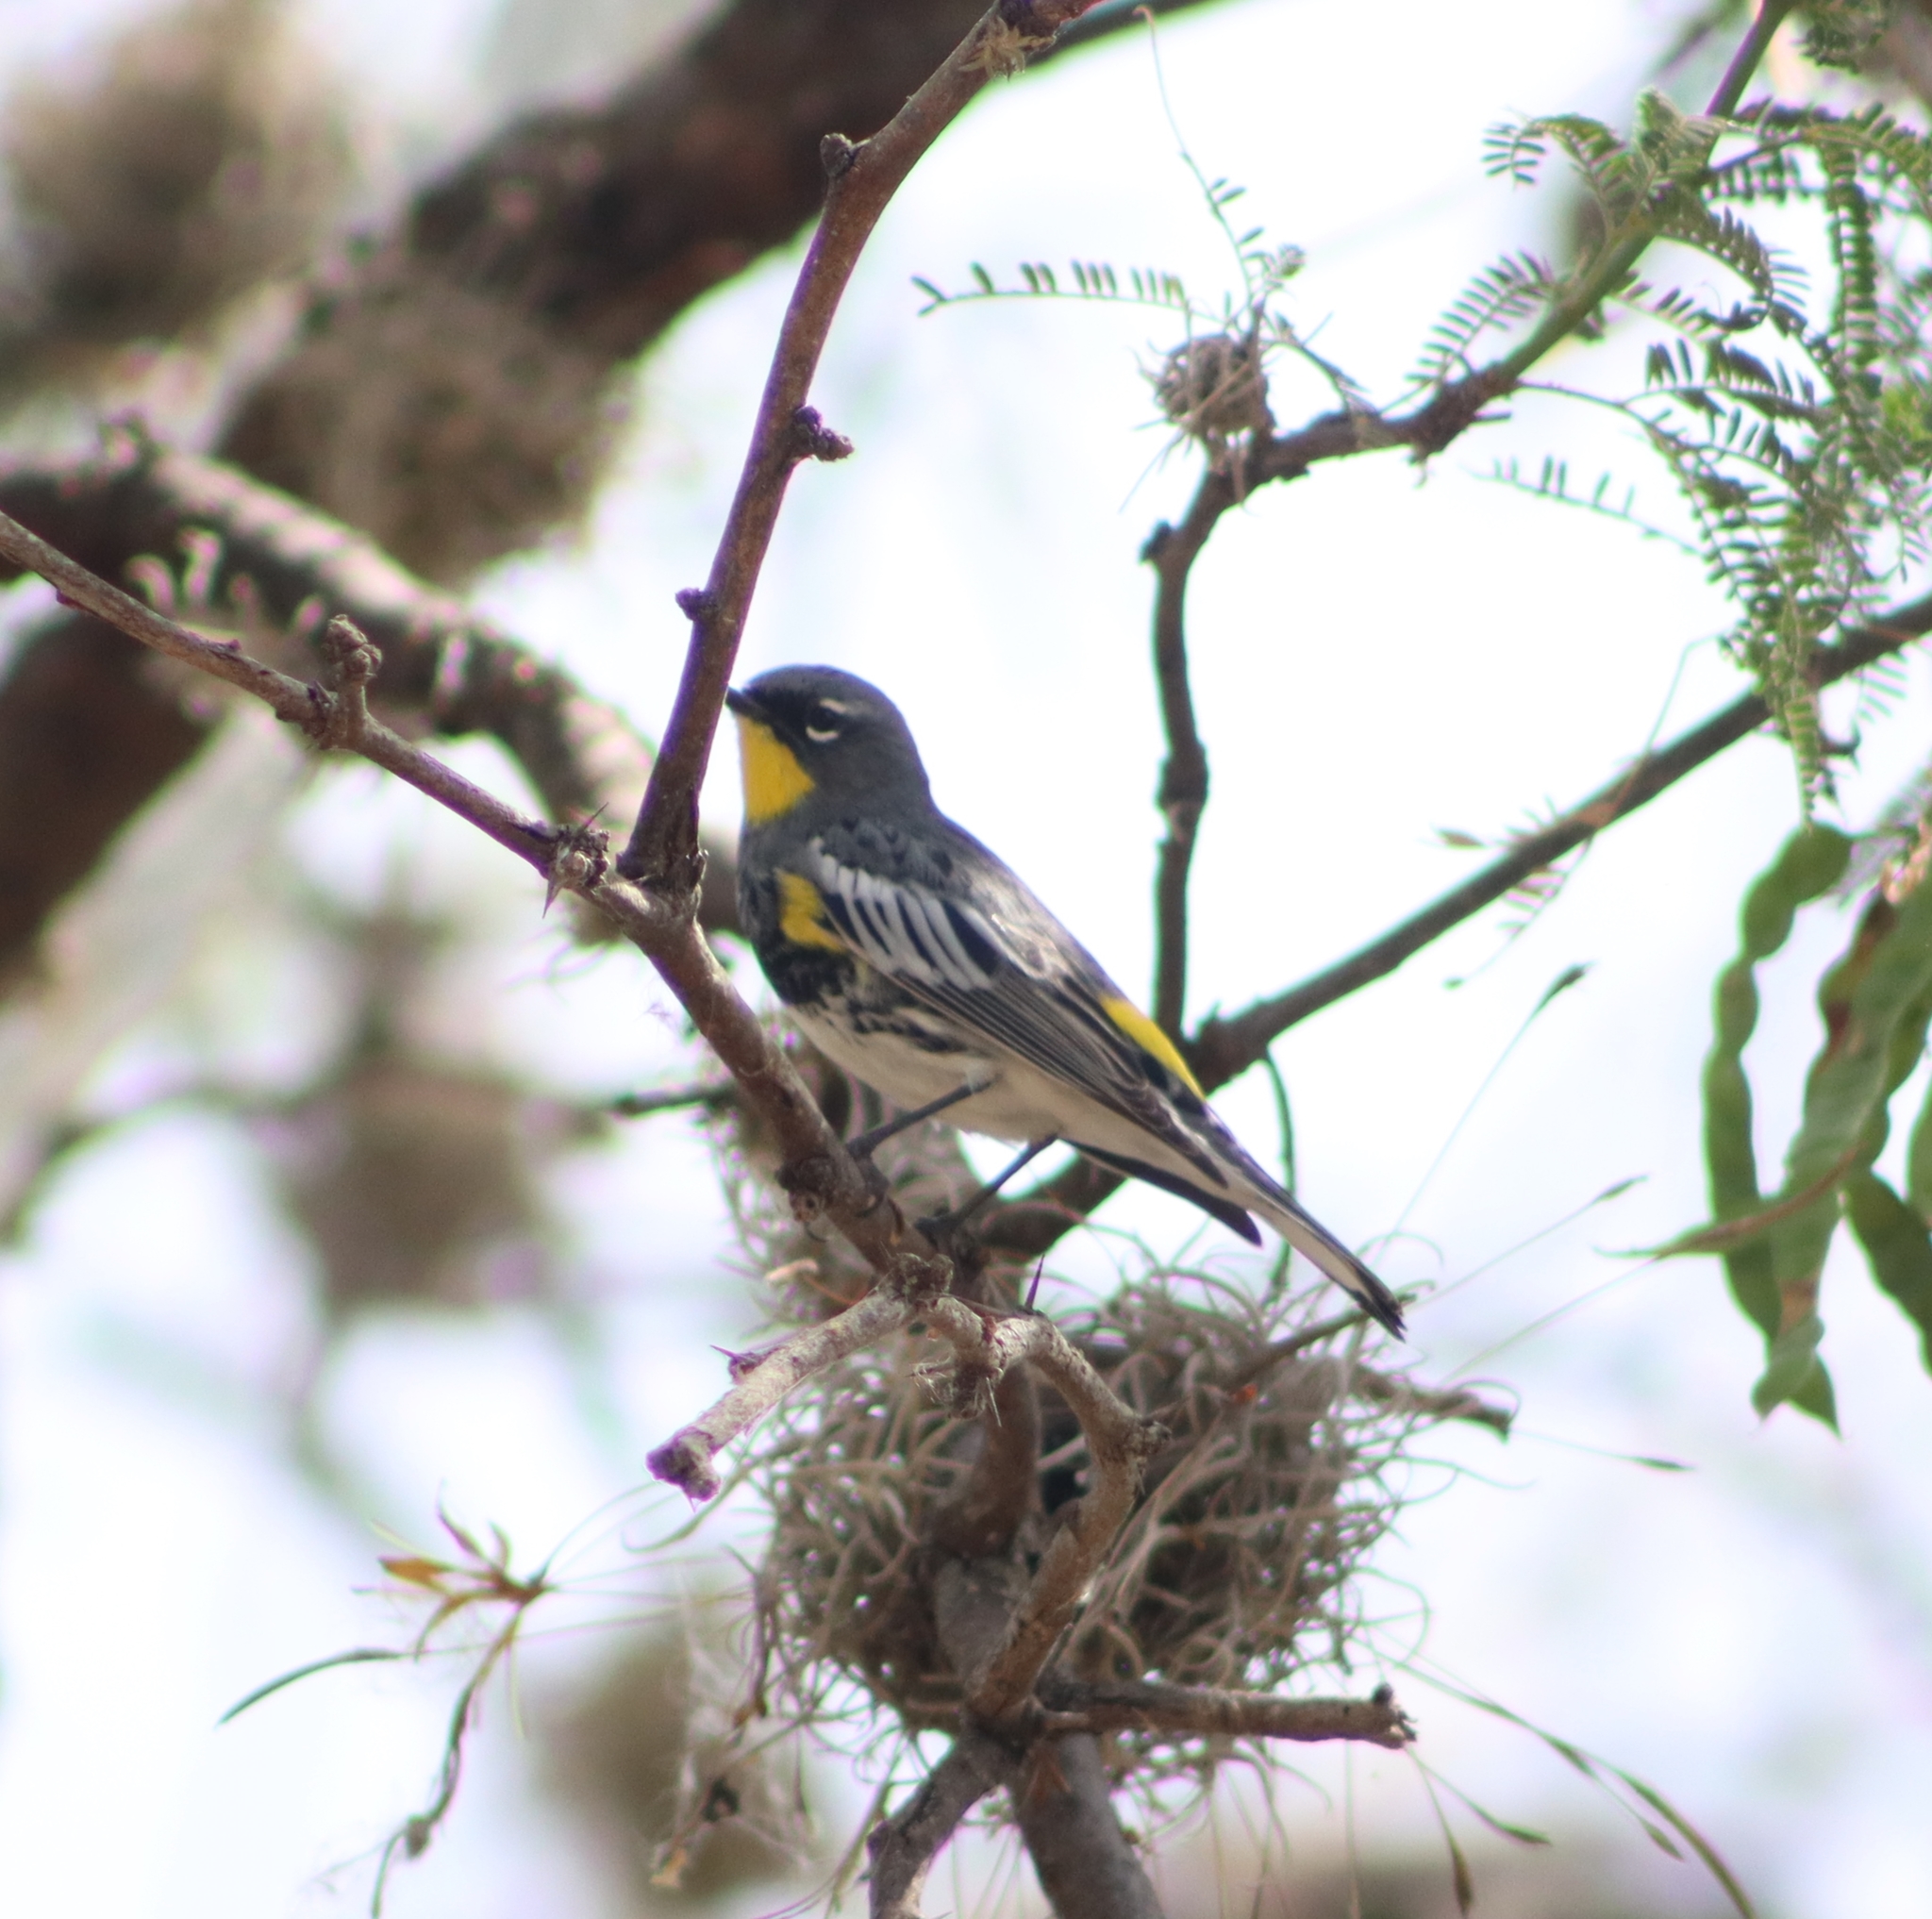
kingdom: Animalia
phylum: Chordata
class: Aves
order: Passeriformes
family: Parulidae
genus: Setophaga
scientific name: Setophaga auduboni
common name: Audubon's warbler
